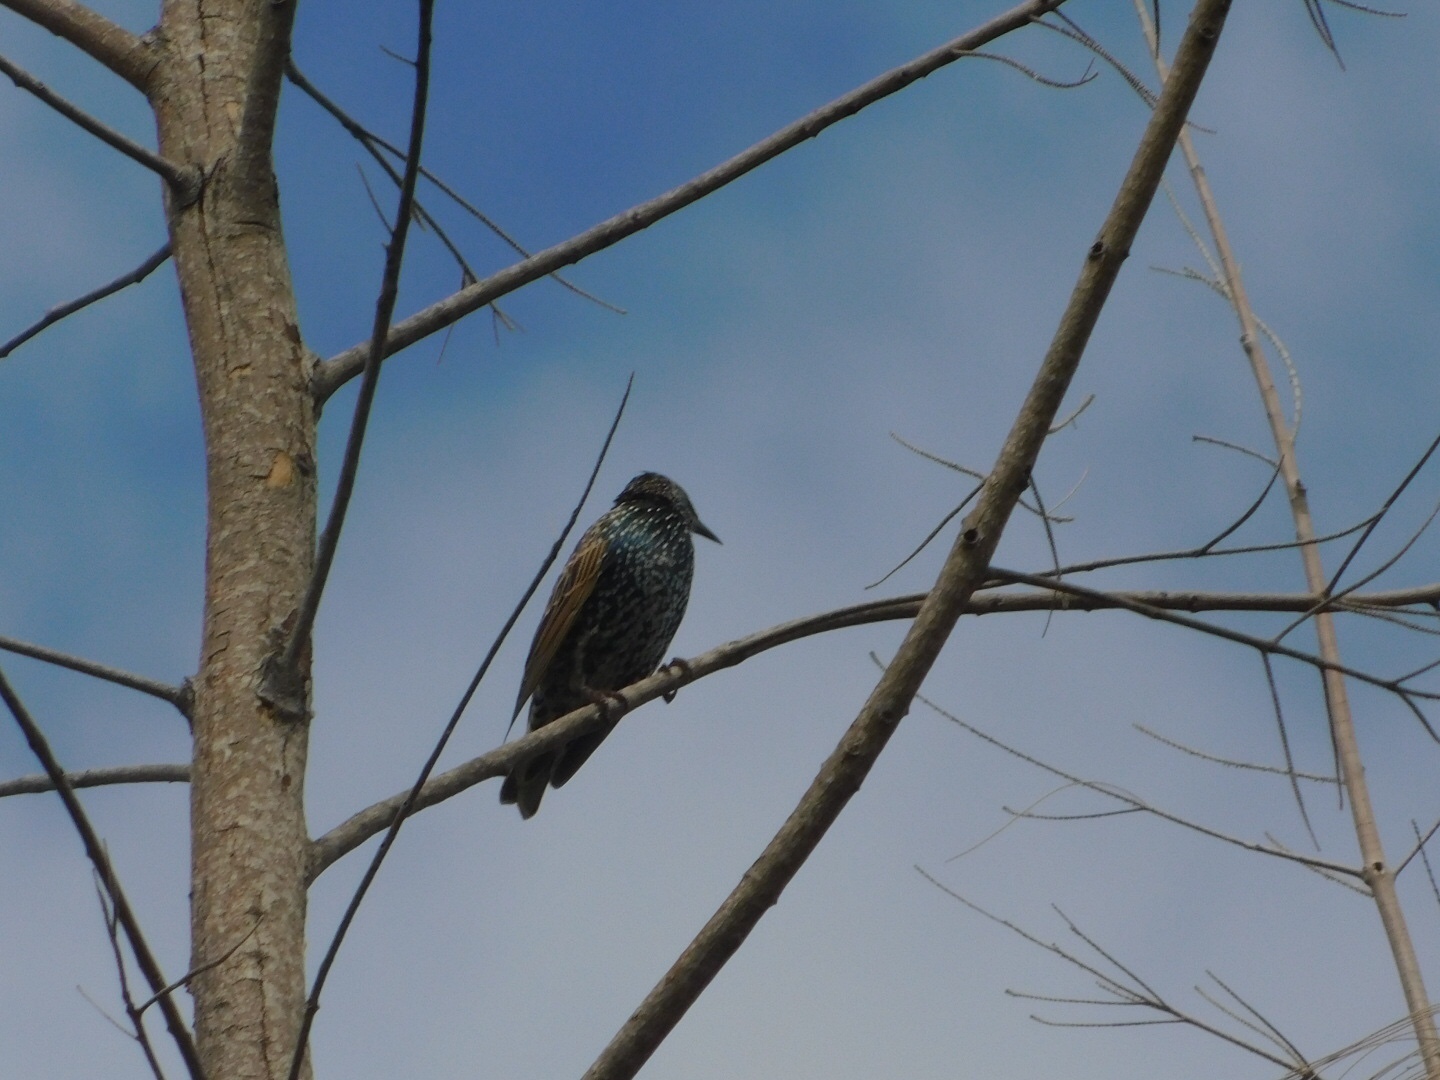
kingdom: Animalia
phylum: Chordata
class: Aves
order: Passeriformes
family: Sturnidae
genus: Sturnus
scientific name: Sturnus vulgaris
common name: Common starling
